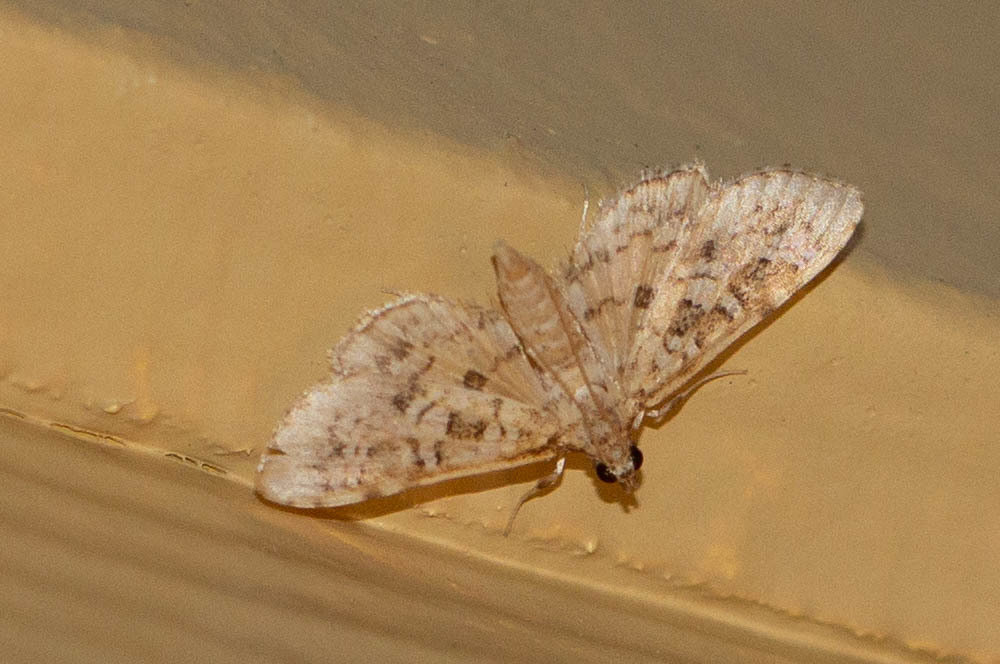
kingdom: Animalia
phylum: Arthropoda
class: Insecta
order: Lepidoptera
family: Crambidae
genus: Samea
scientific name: Samea multiplicalis
